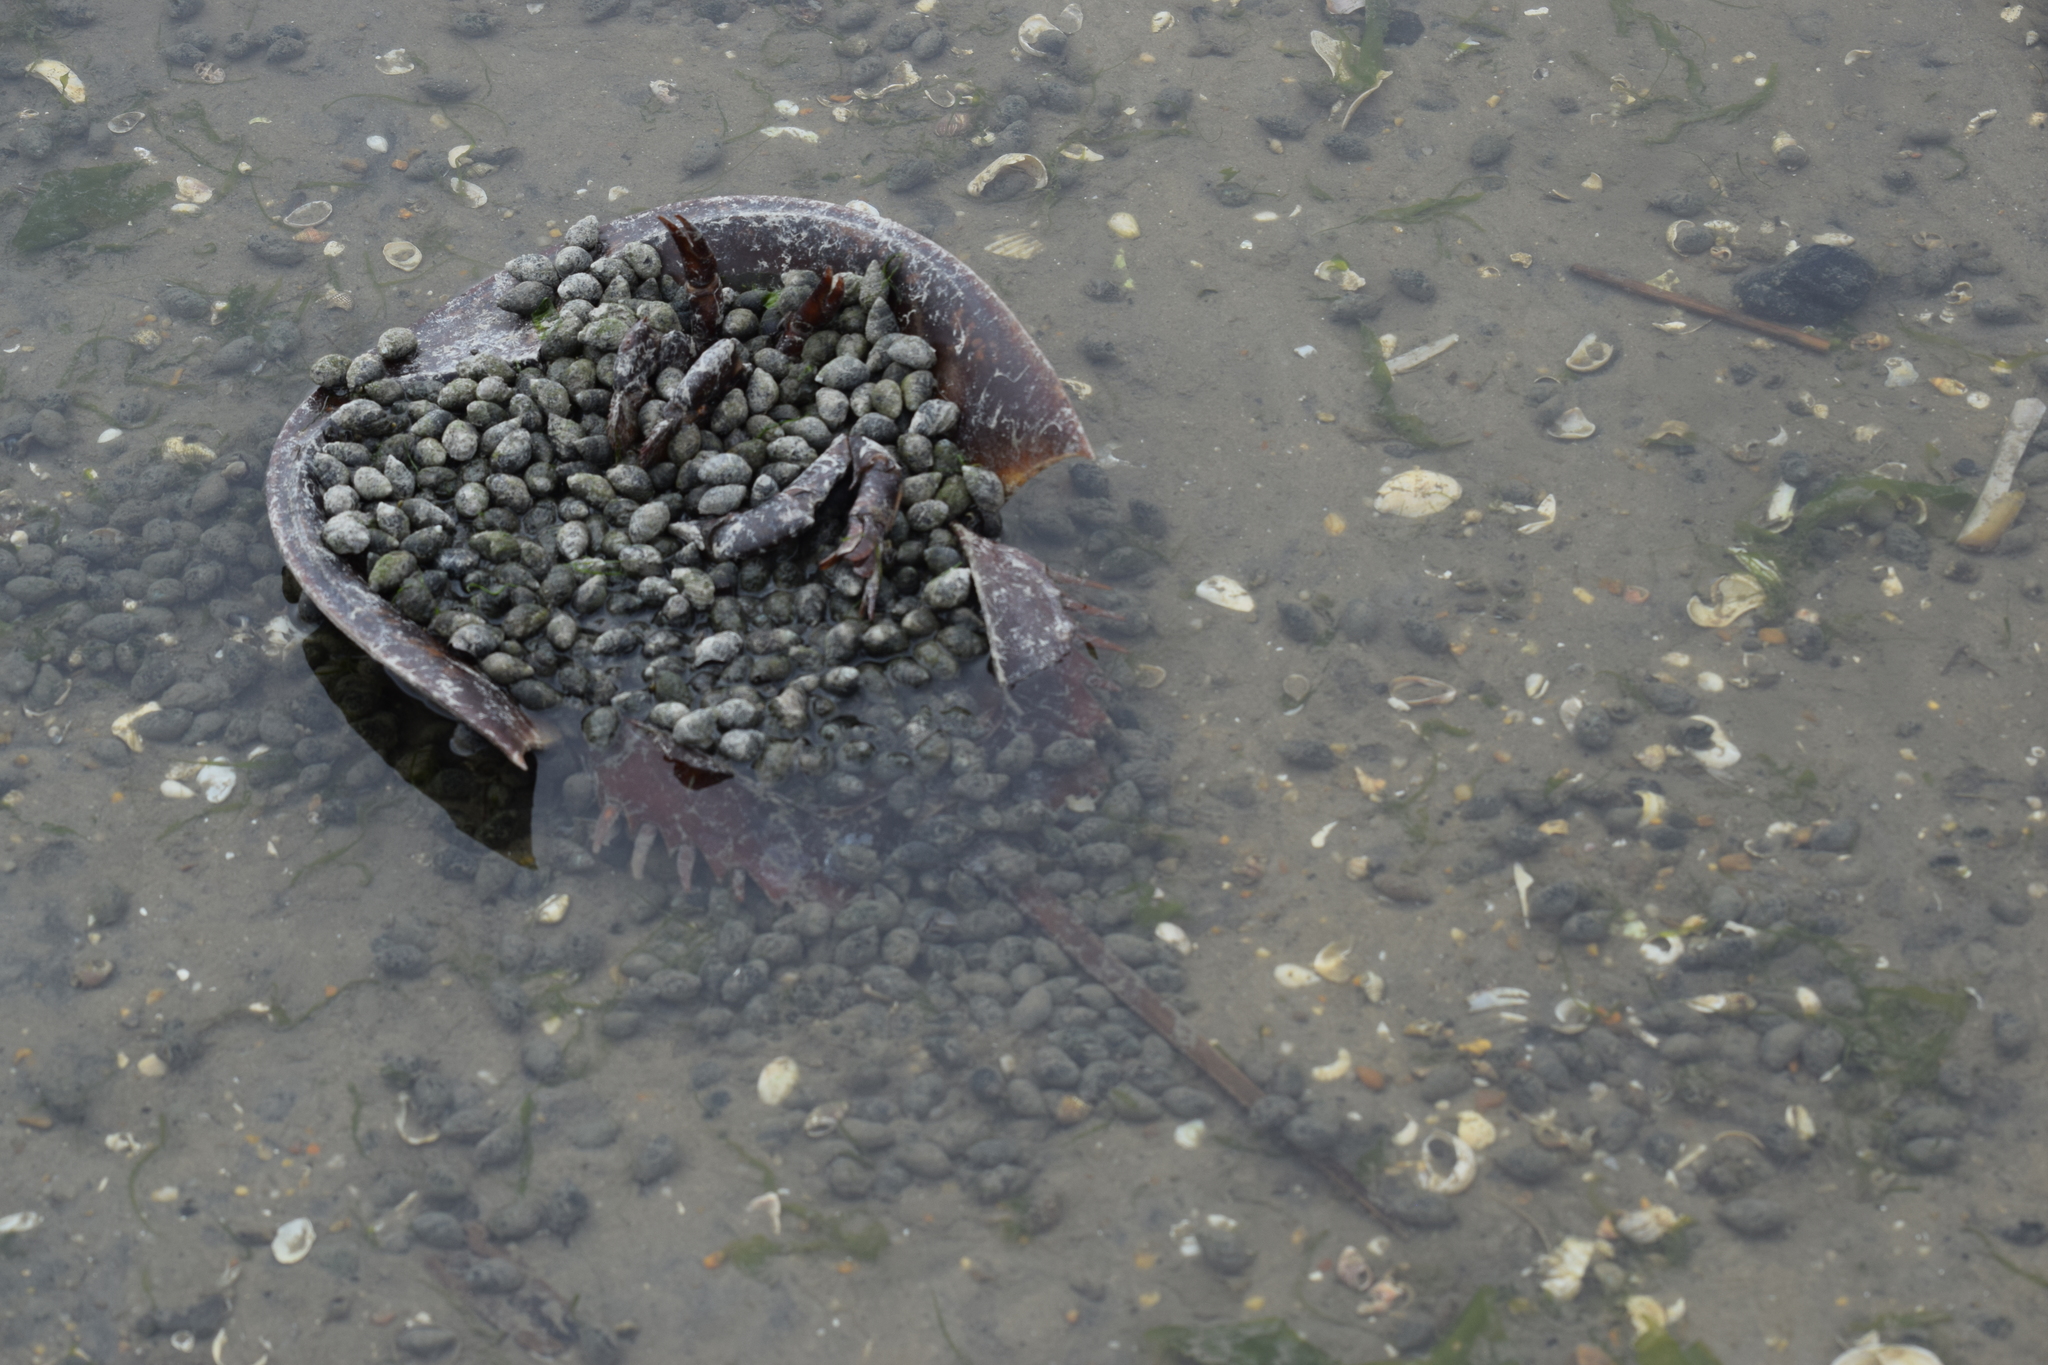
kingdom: Animalia
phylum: Mollusca
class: Gastropoda
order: Neogastropoda
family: Nassariidae
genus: Ilyanassa
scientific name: Ilyanassa obsoleta
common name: Eastern mudsnail
